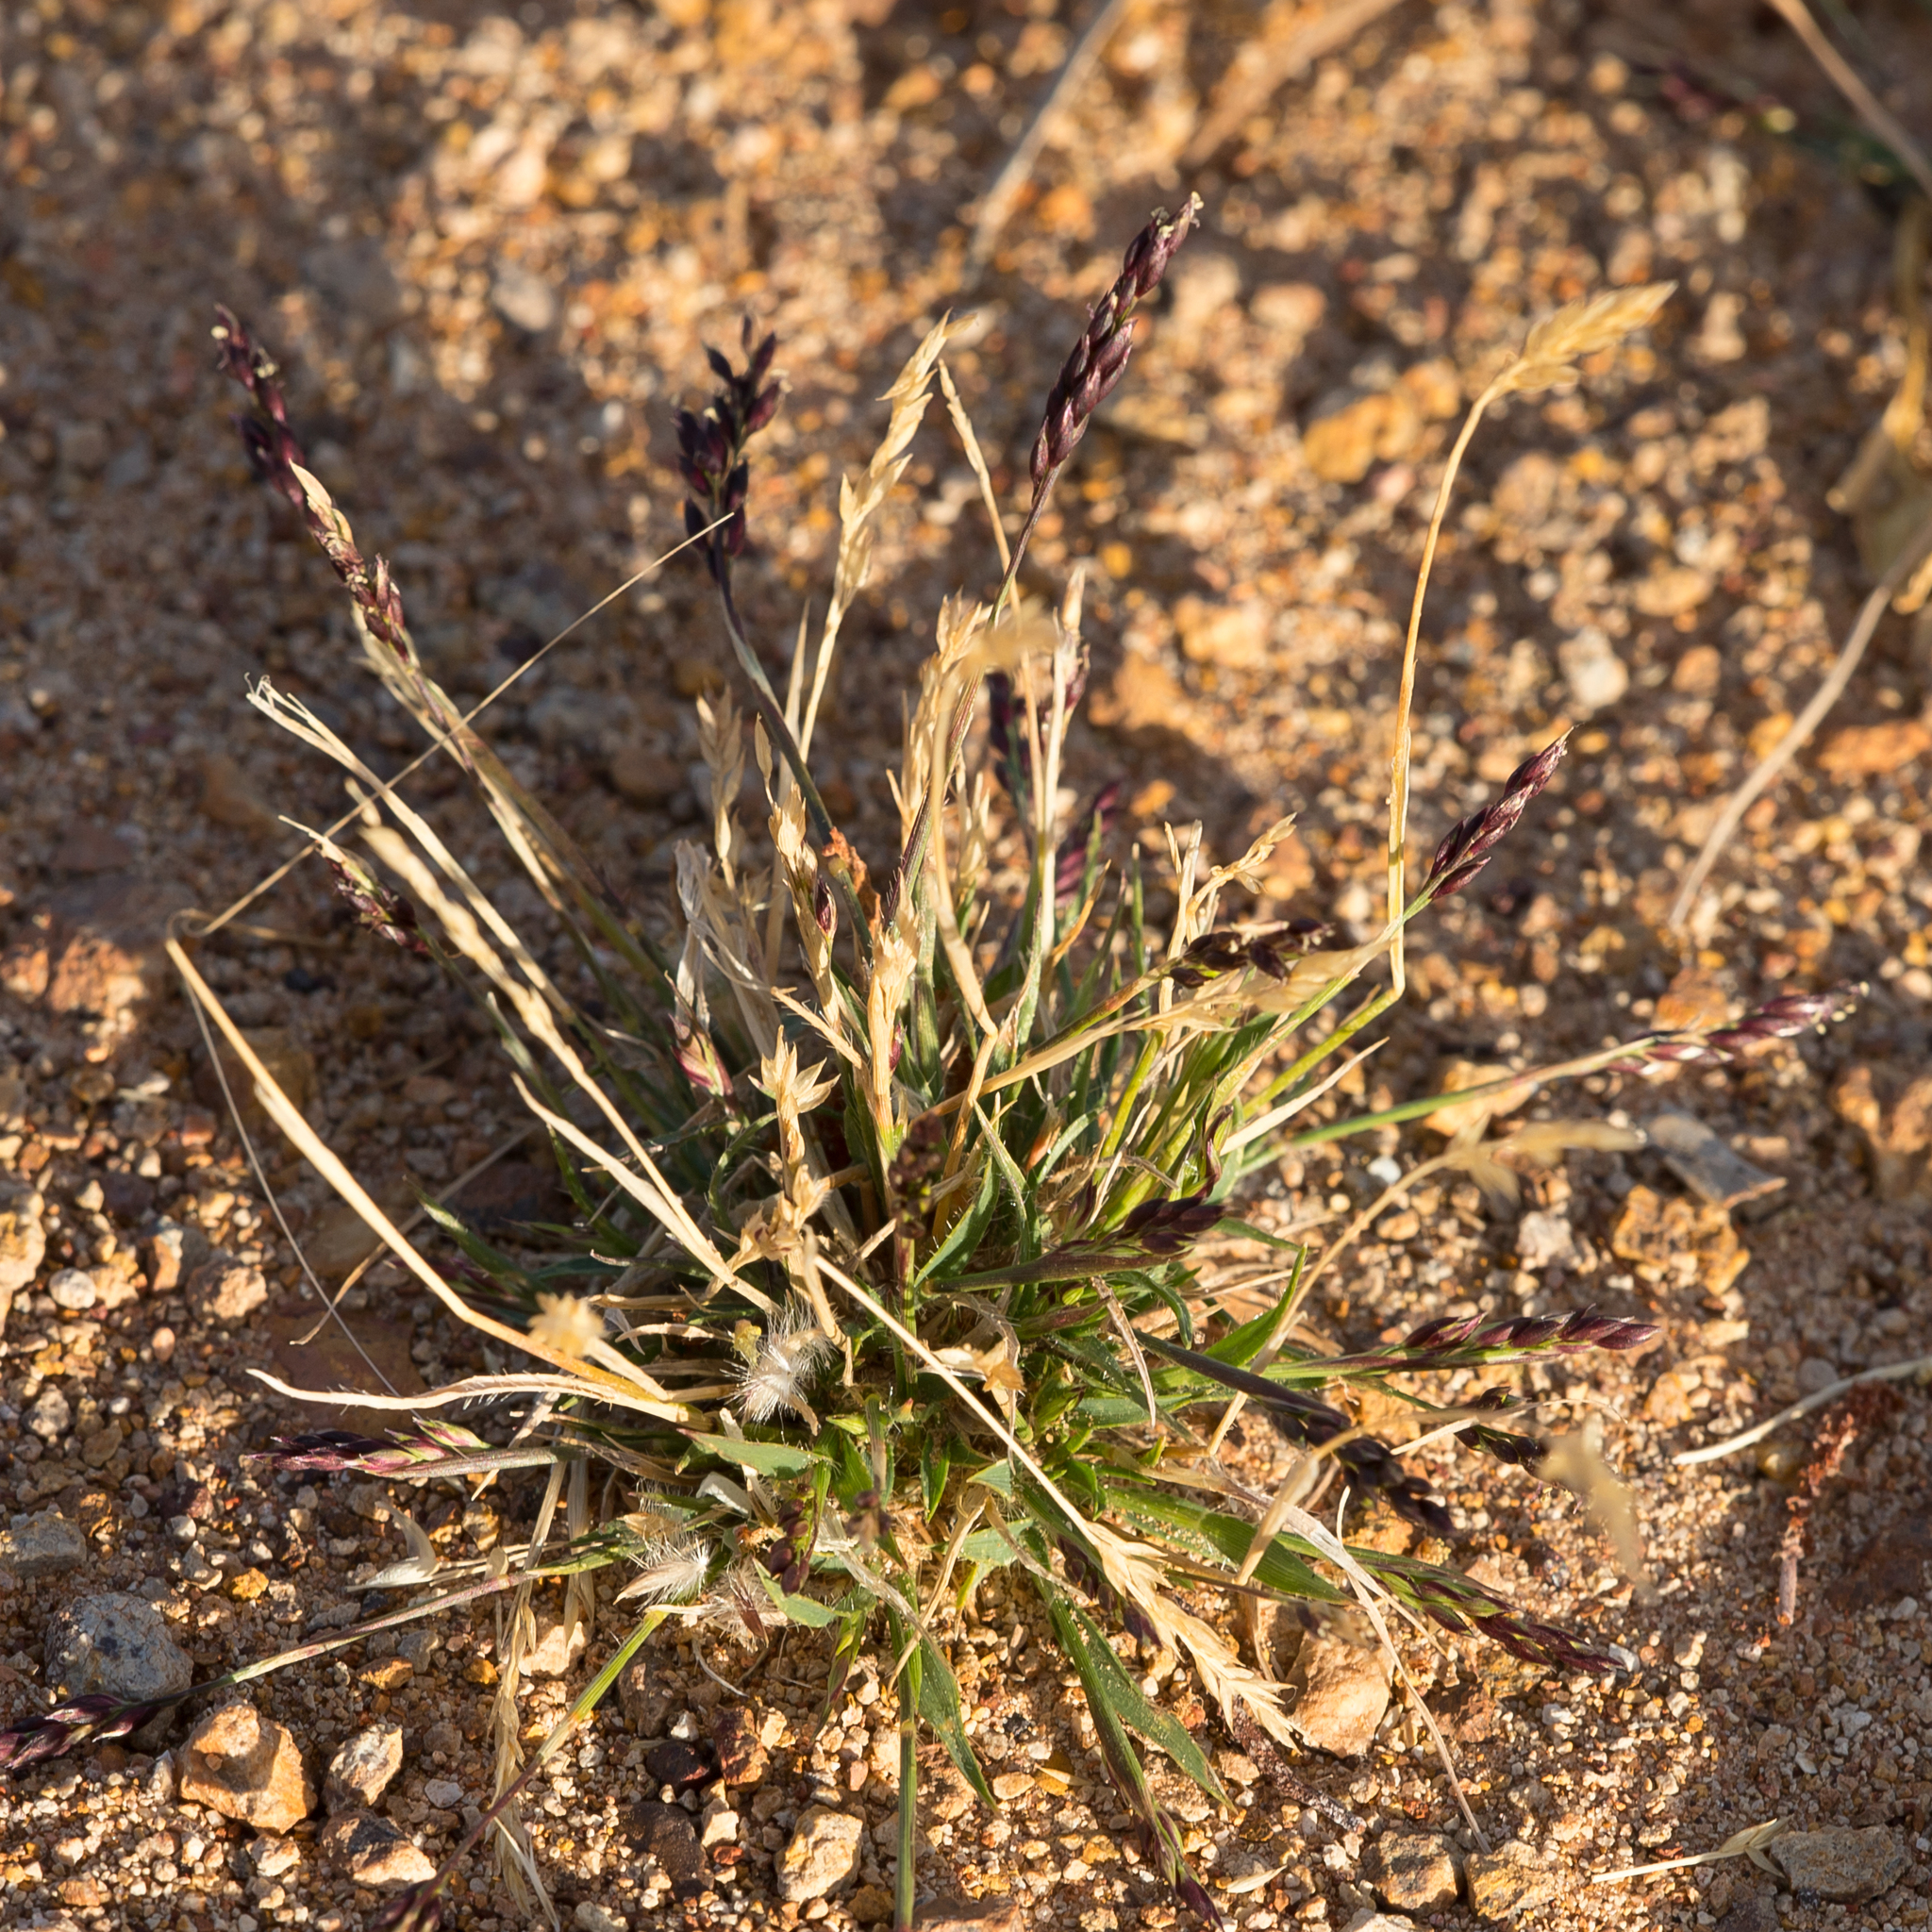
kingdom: Plantae
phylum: Tracheophyta
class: Liliopsida
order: Poales
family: Poaceae
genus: Eriachne
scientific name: Eriachne pulchella
